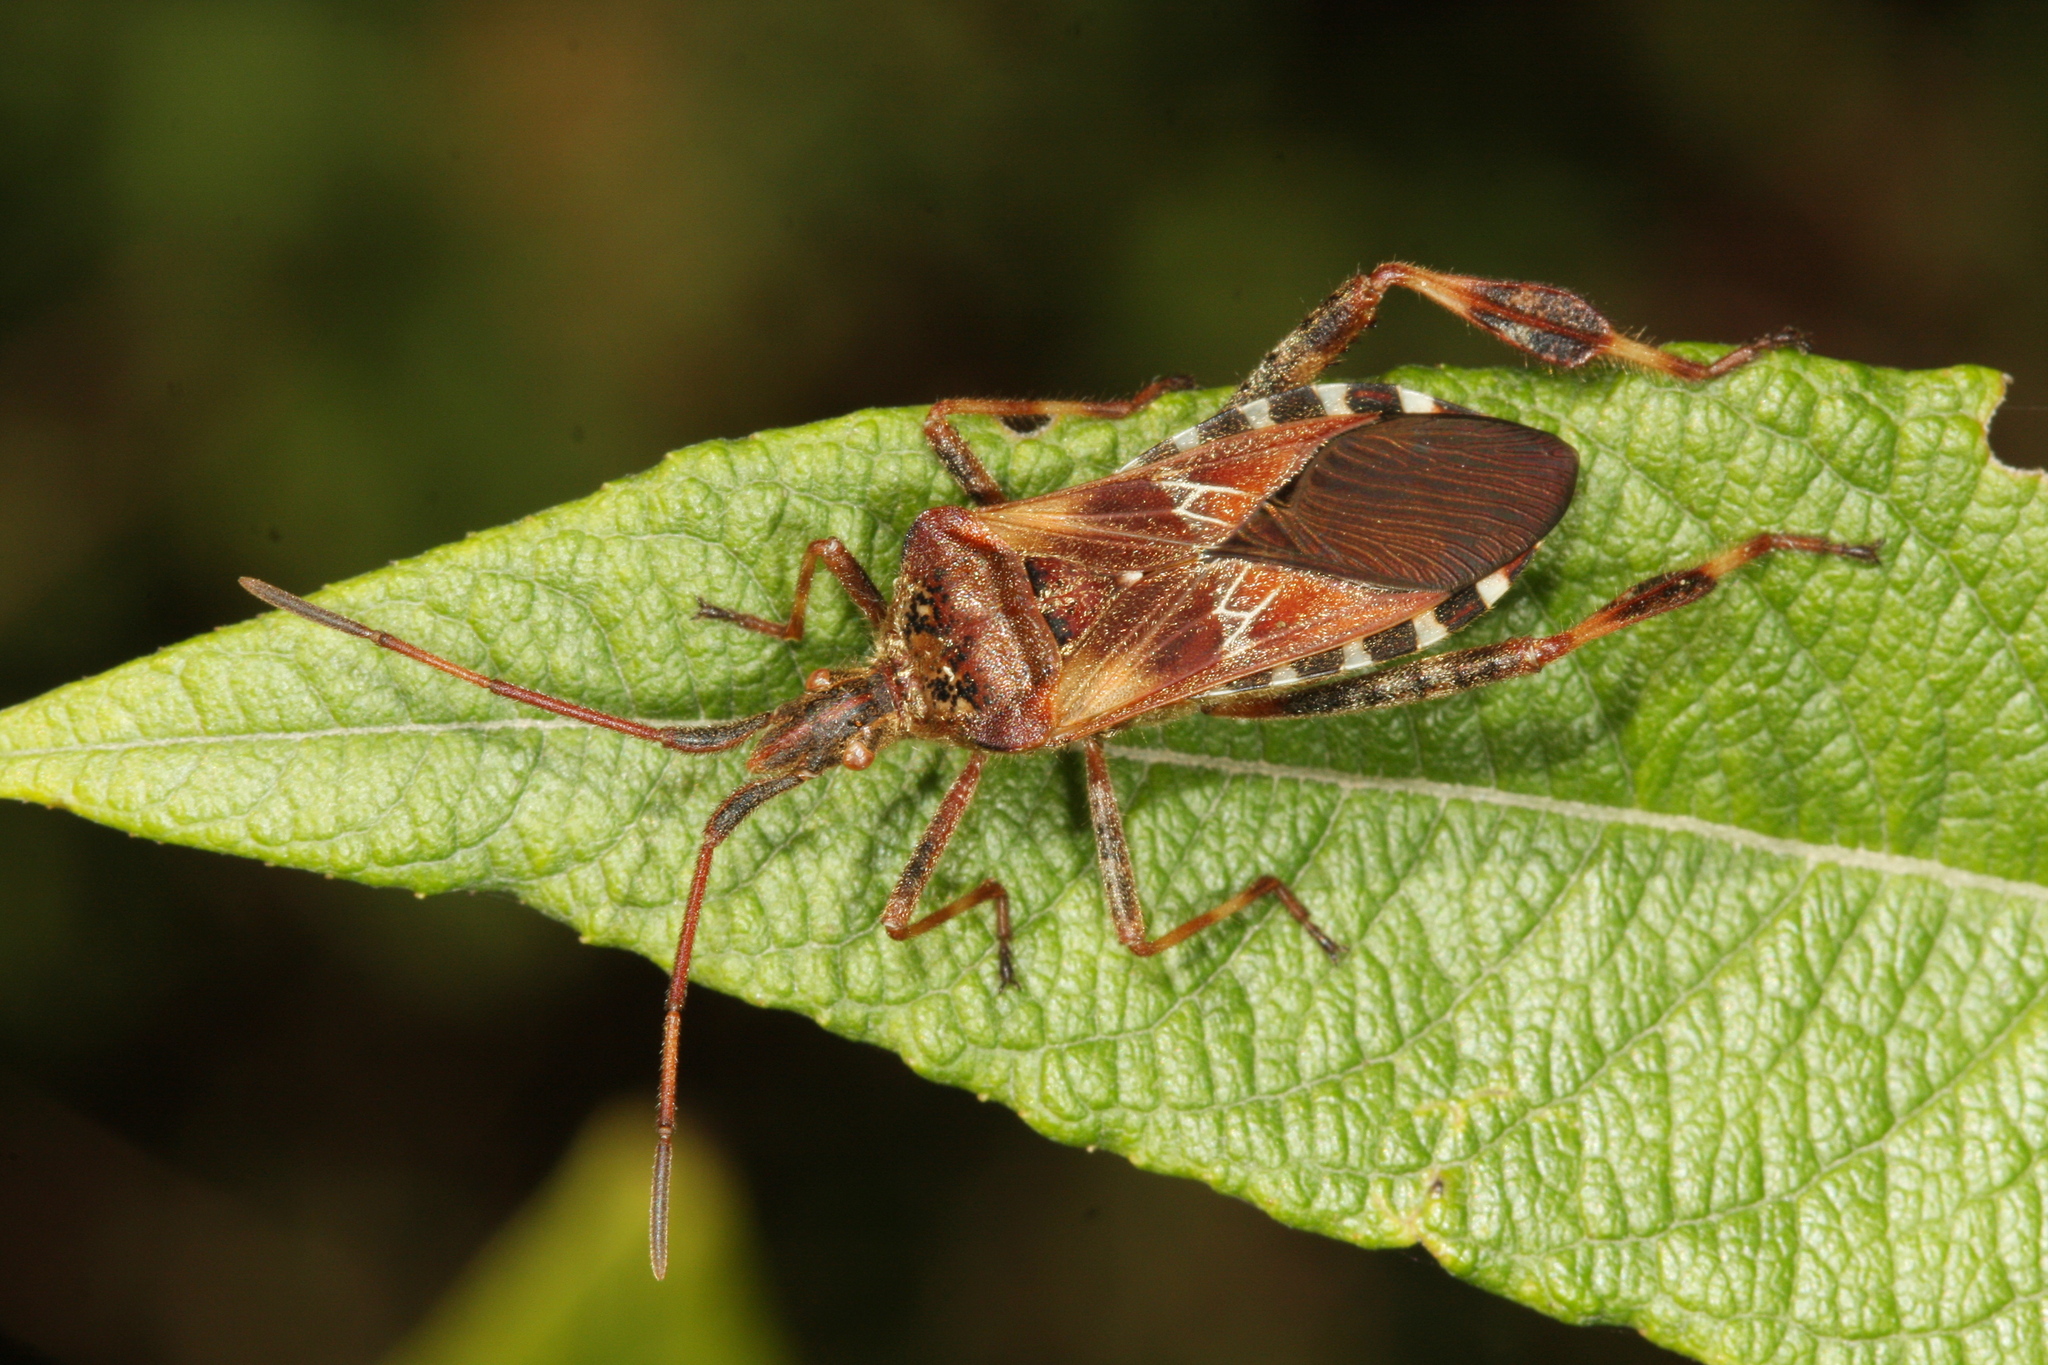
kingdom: Animalia
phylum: Arthropoda
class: Insecta
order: Hemiptera
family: Coreidae
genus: Leptoglossus
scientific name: Leptoglossus occidentalis
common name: Western conifer-seed bug
